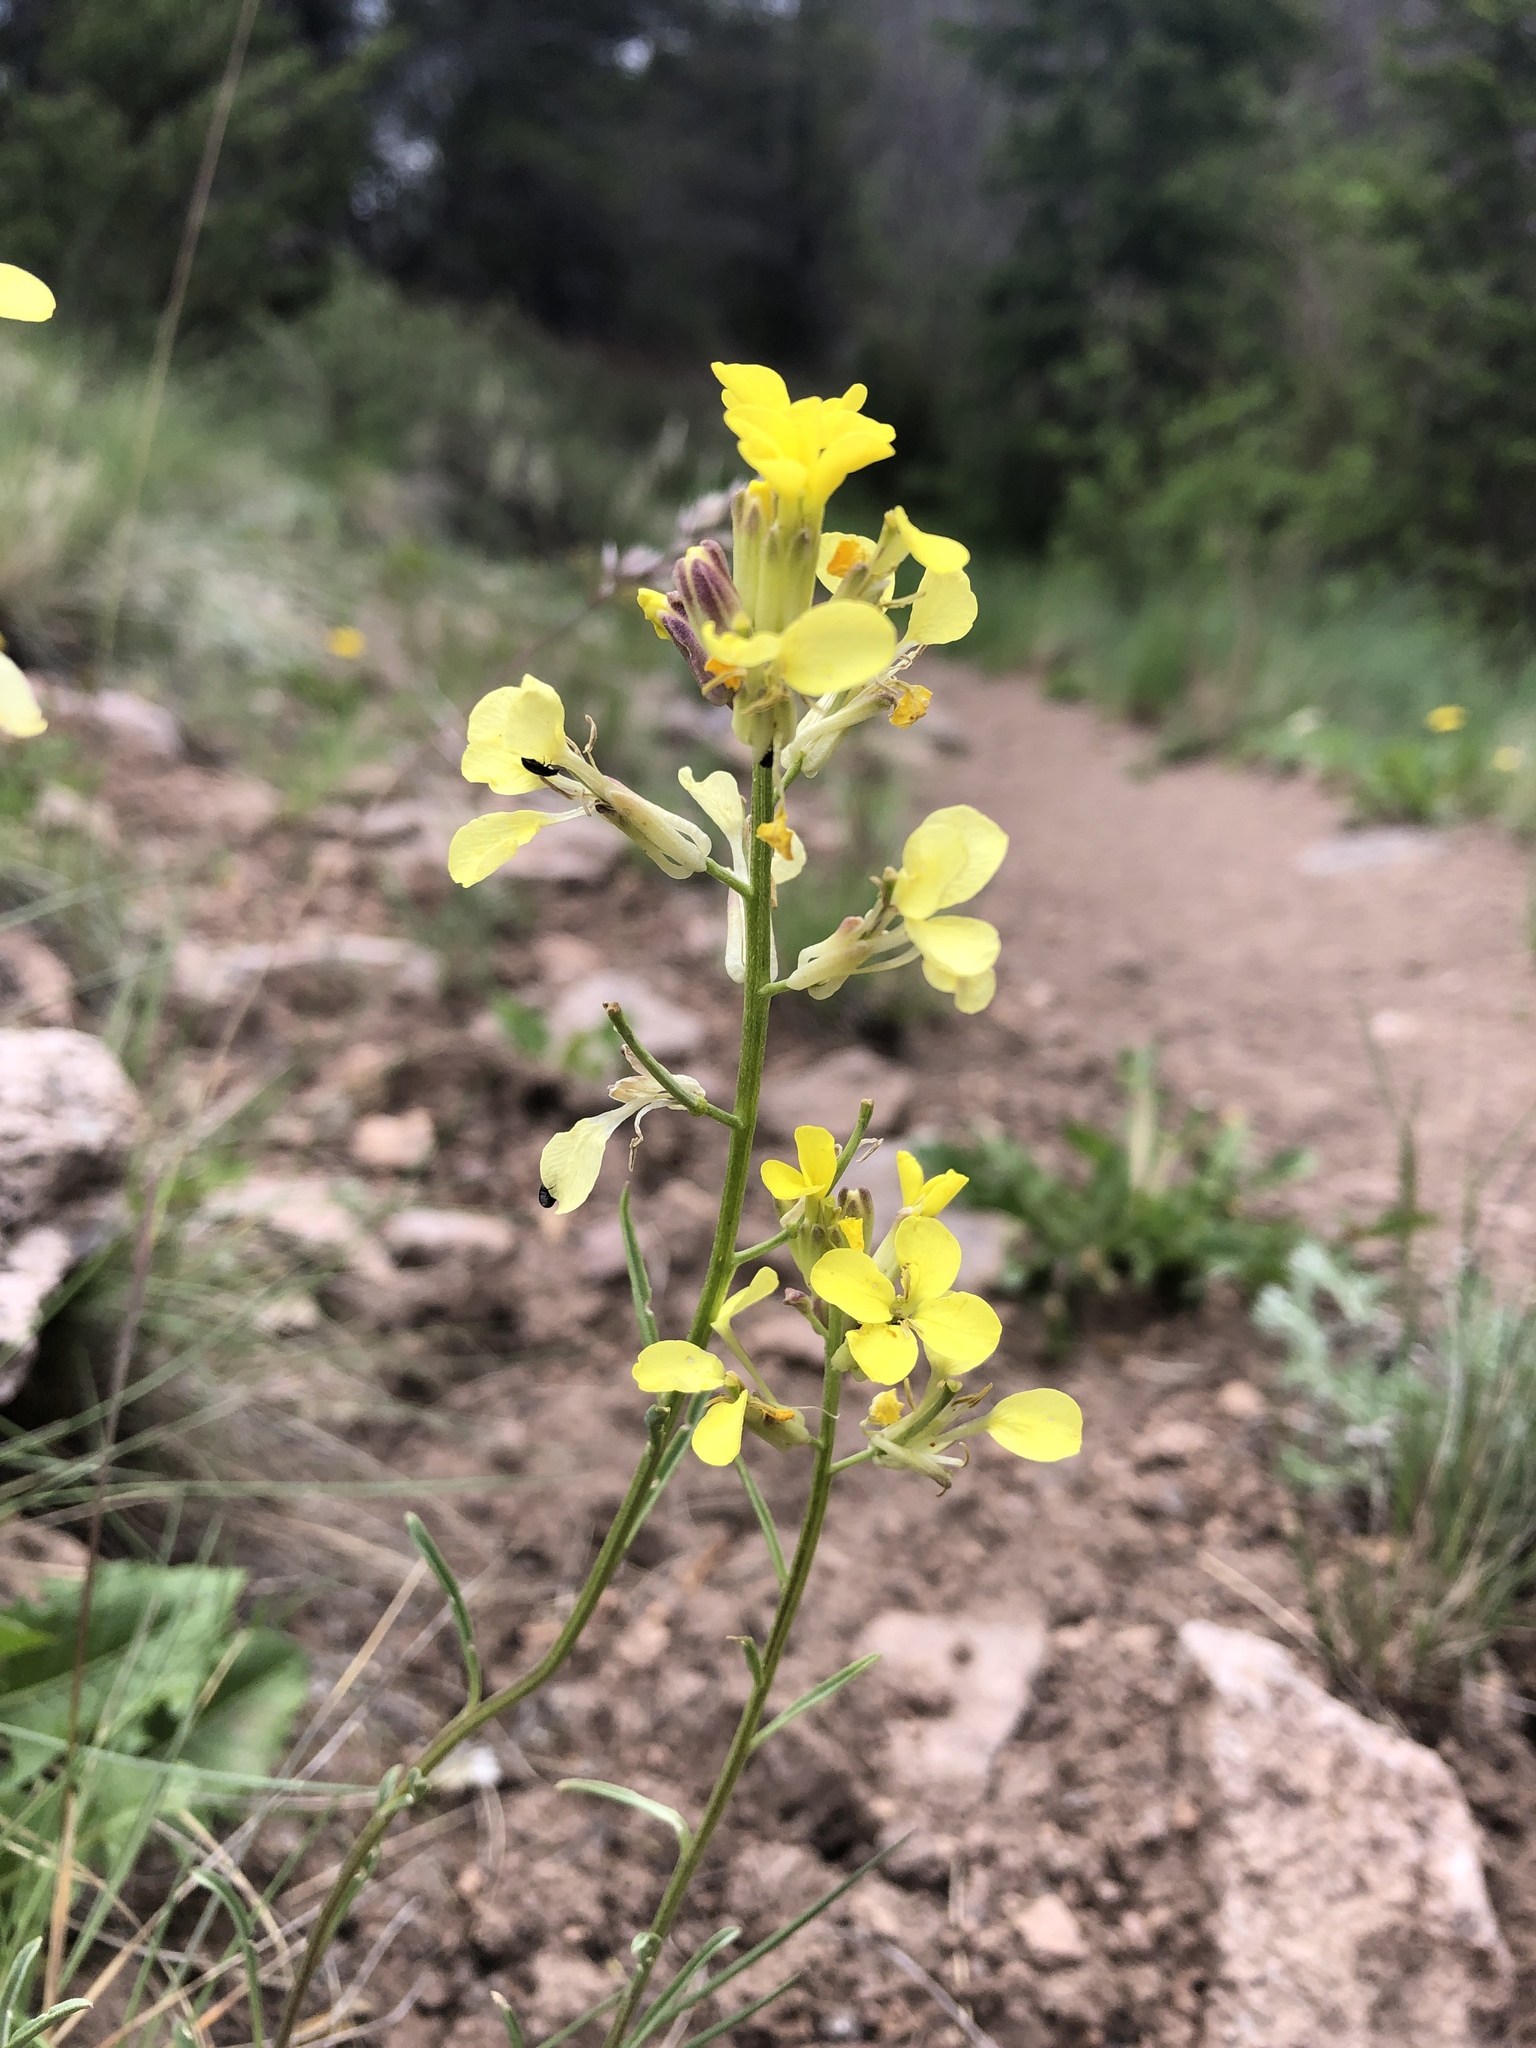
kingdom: Plantae
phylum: Tracheophyta
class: Magnoliopsida
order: Brassicales
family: Brassicaceae
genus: Erysimum
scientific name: Erysimum capitatum
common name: Western wallflower
